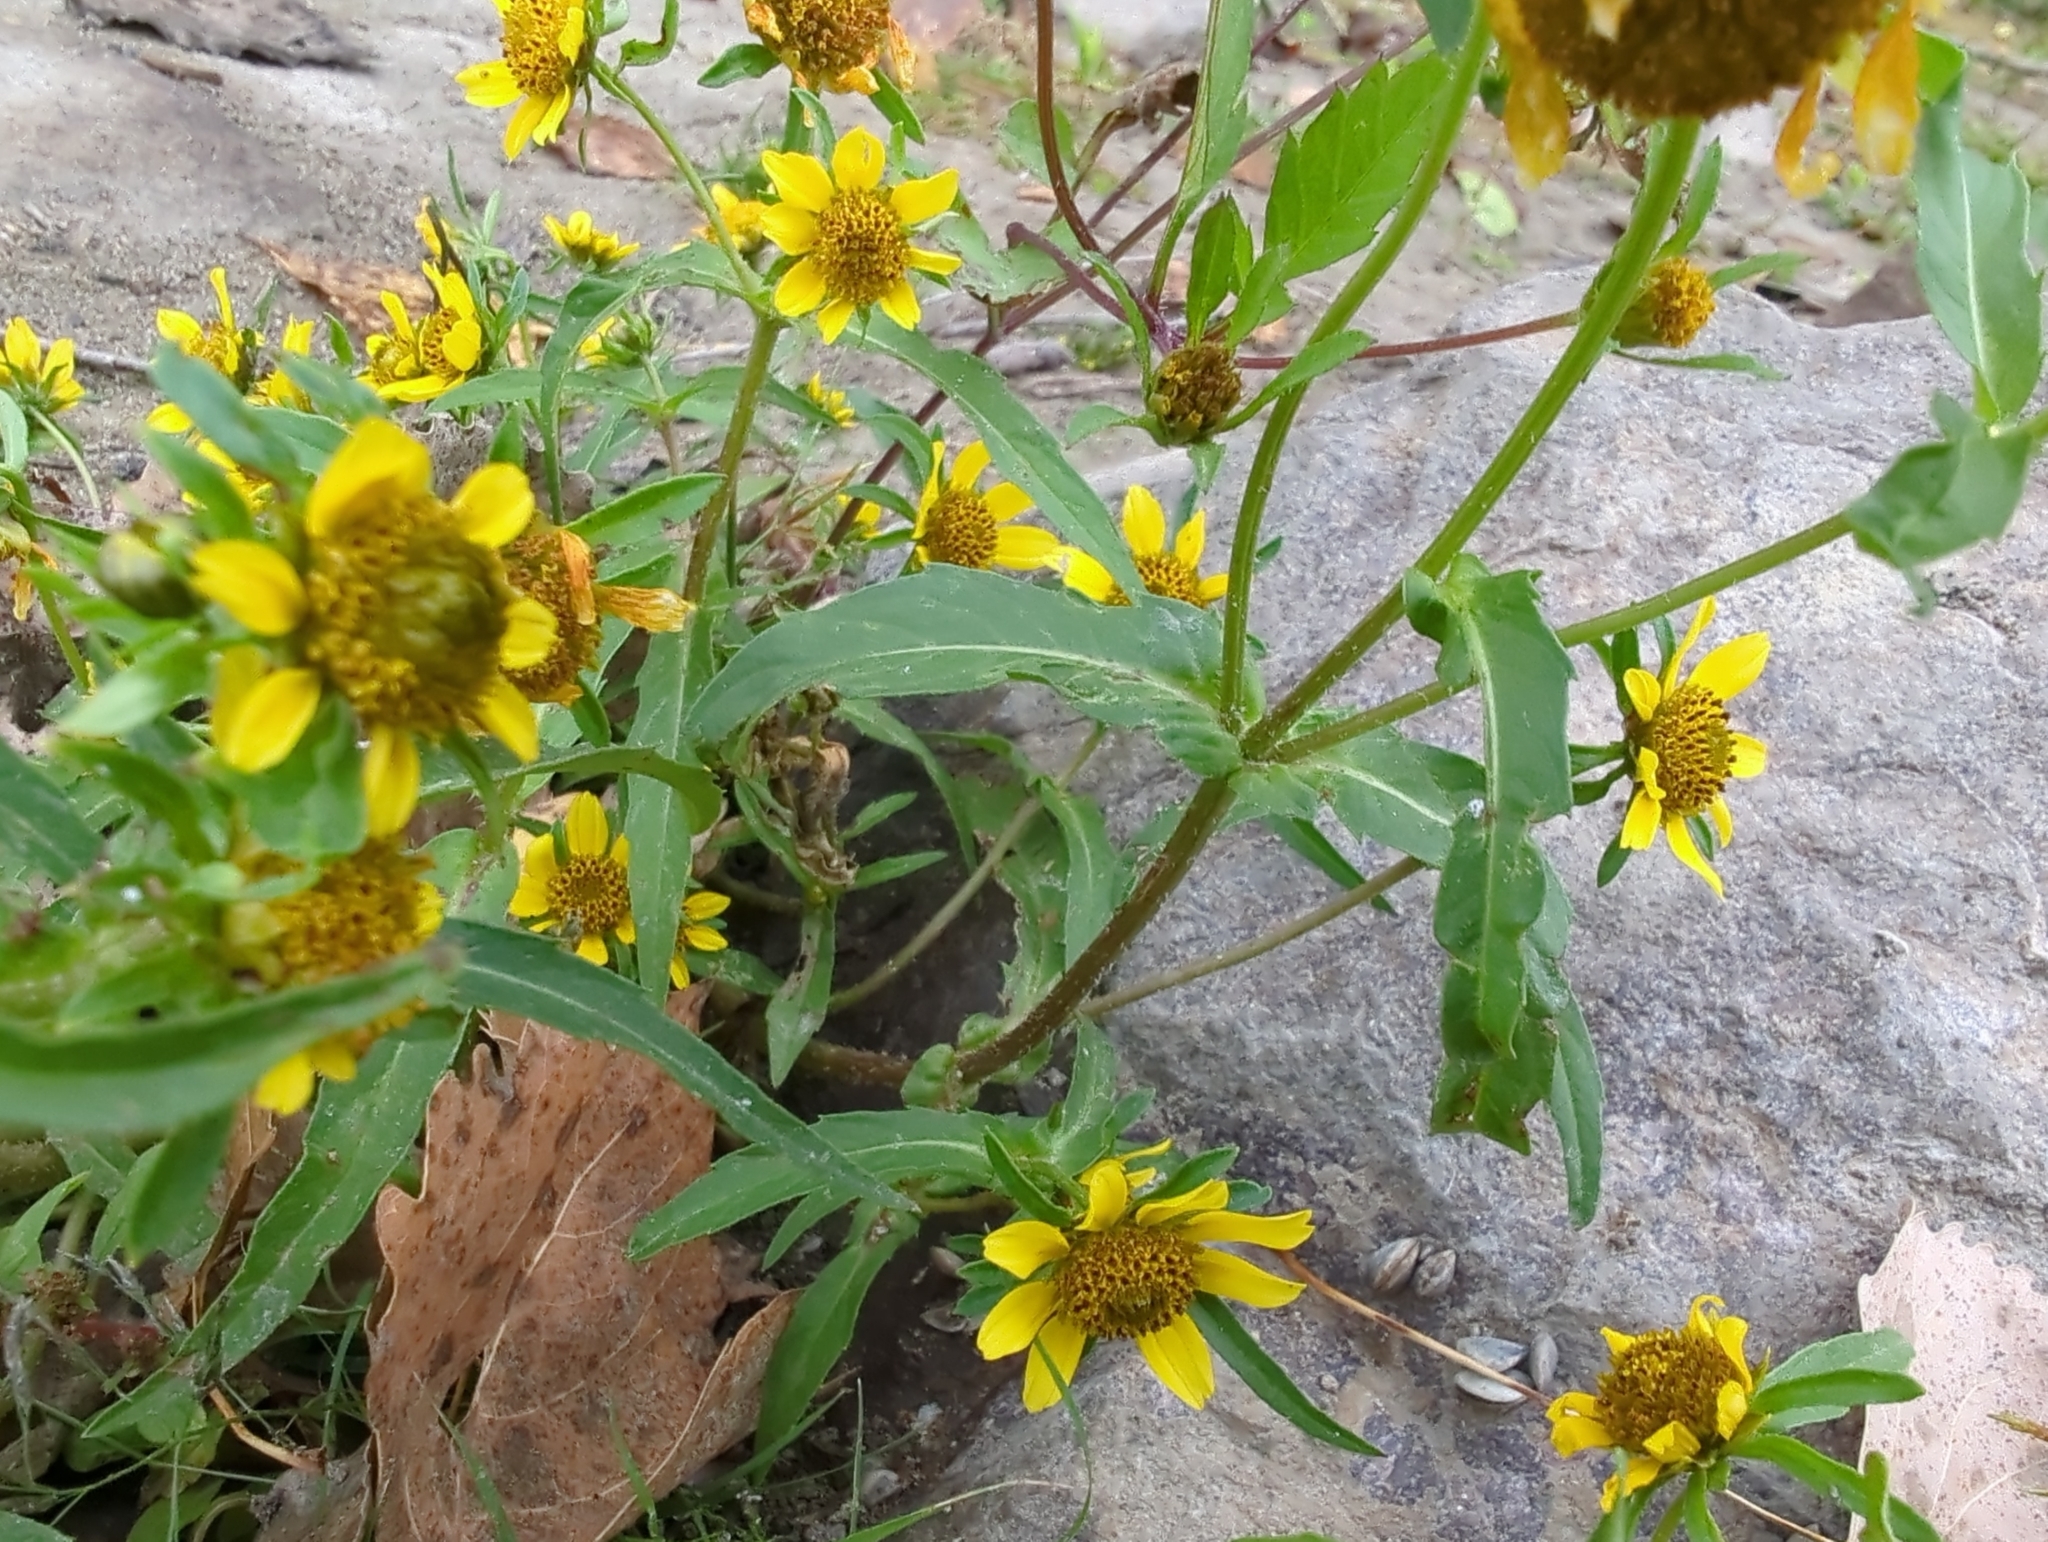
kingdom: Plantae
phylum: Tracheophyta
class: Magnoliopsida
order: Asterales
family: Asteraceae
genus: Bidens
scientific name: Bidens cernua
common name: Nodding bur-marigold
